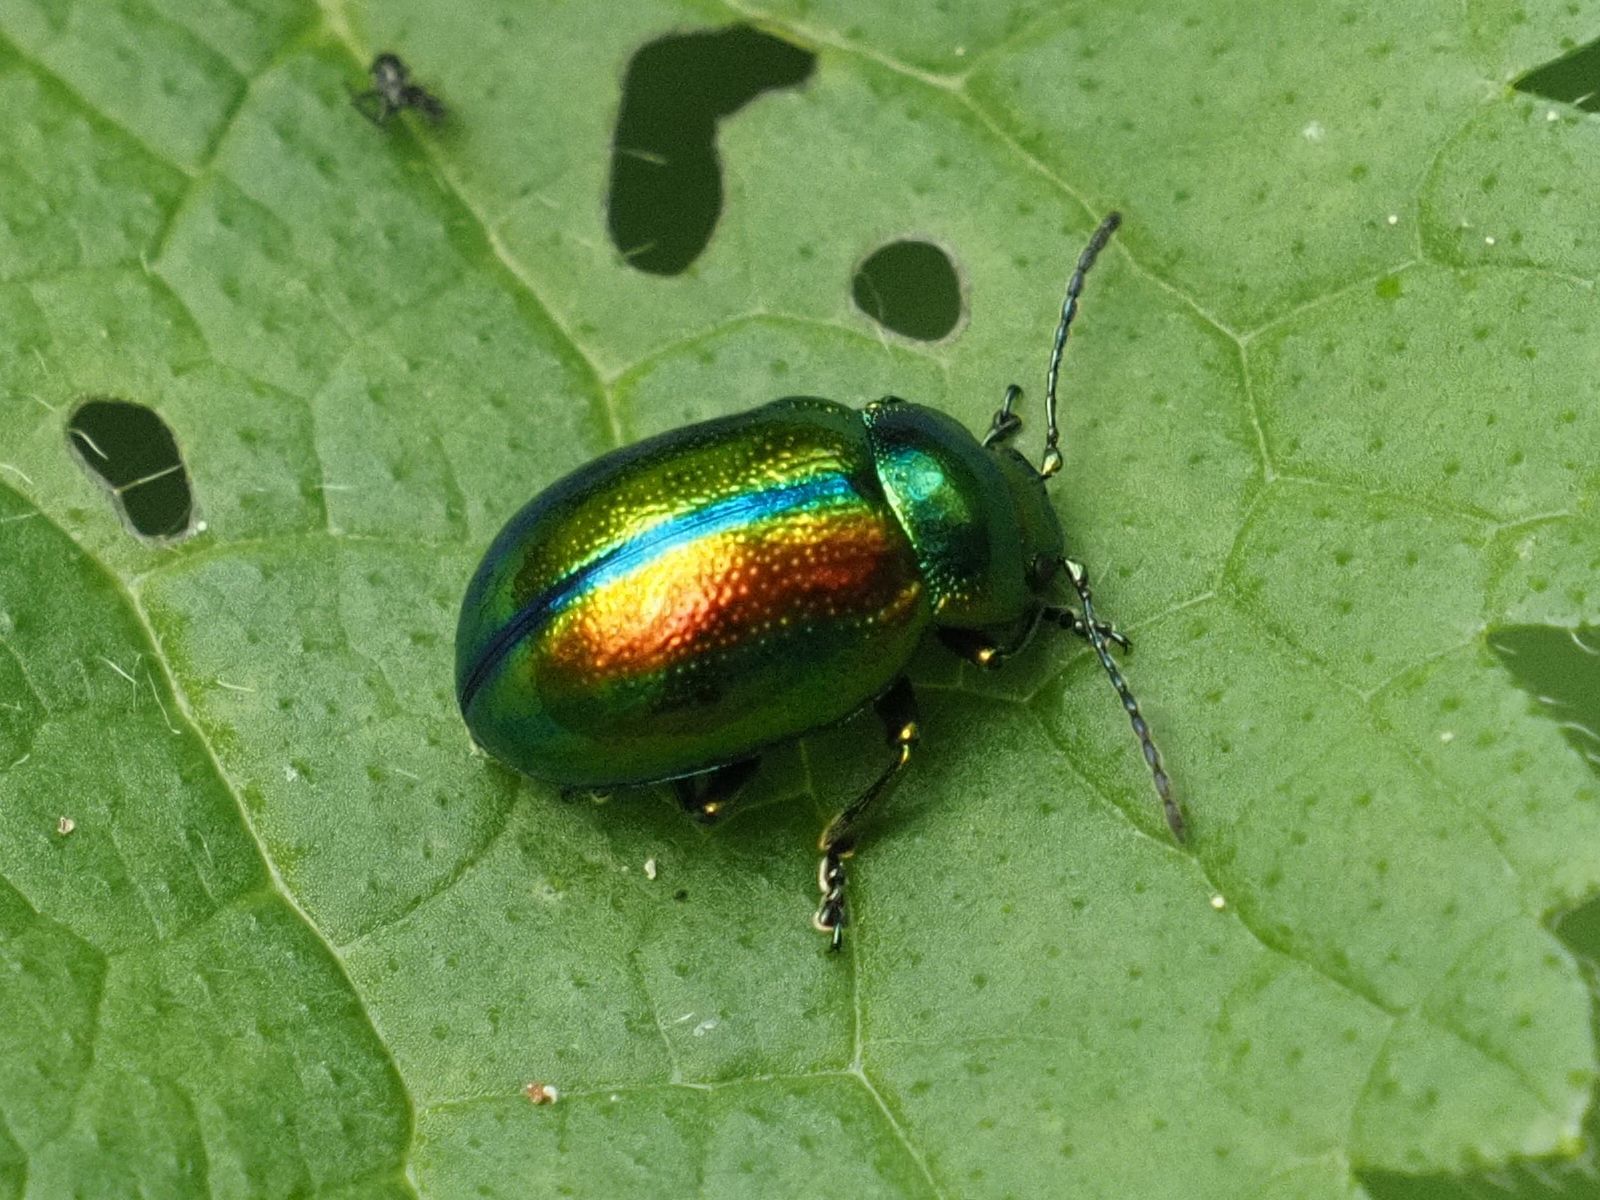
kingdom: Animalia
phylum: Arthropoda
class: Insecta
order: Coleoptera
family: Chrysomelidae
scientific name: Chrysomelidae
